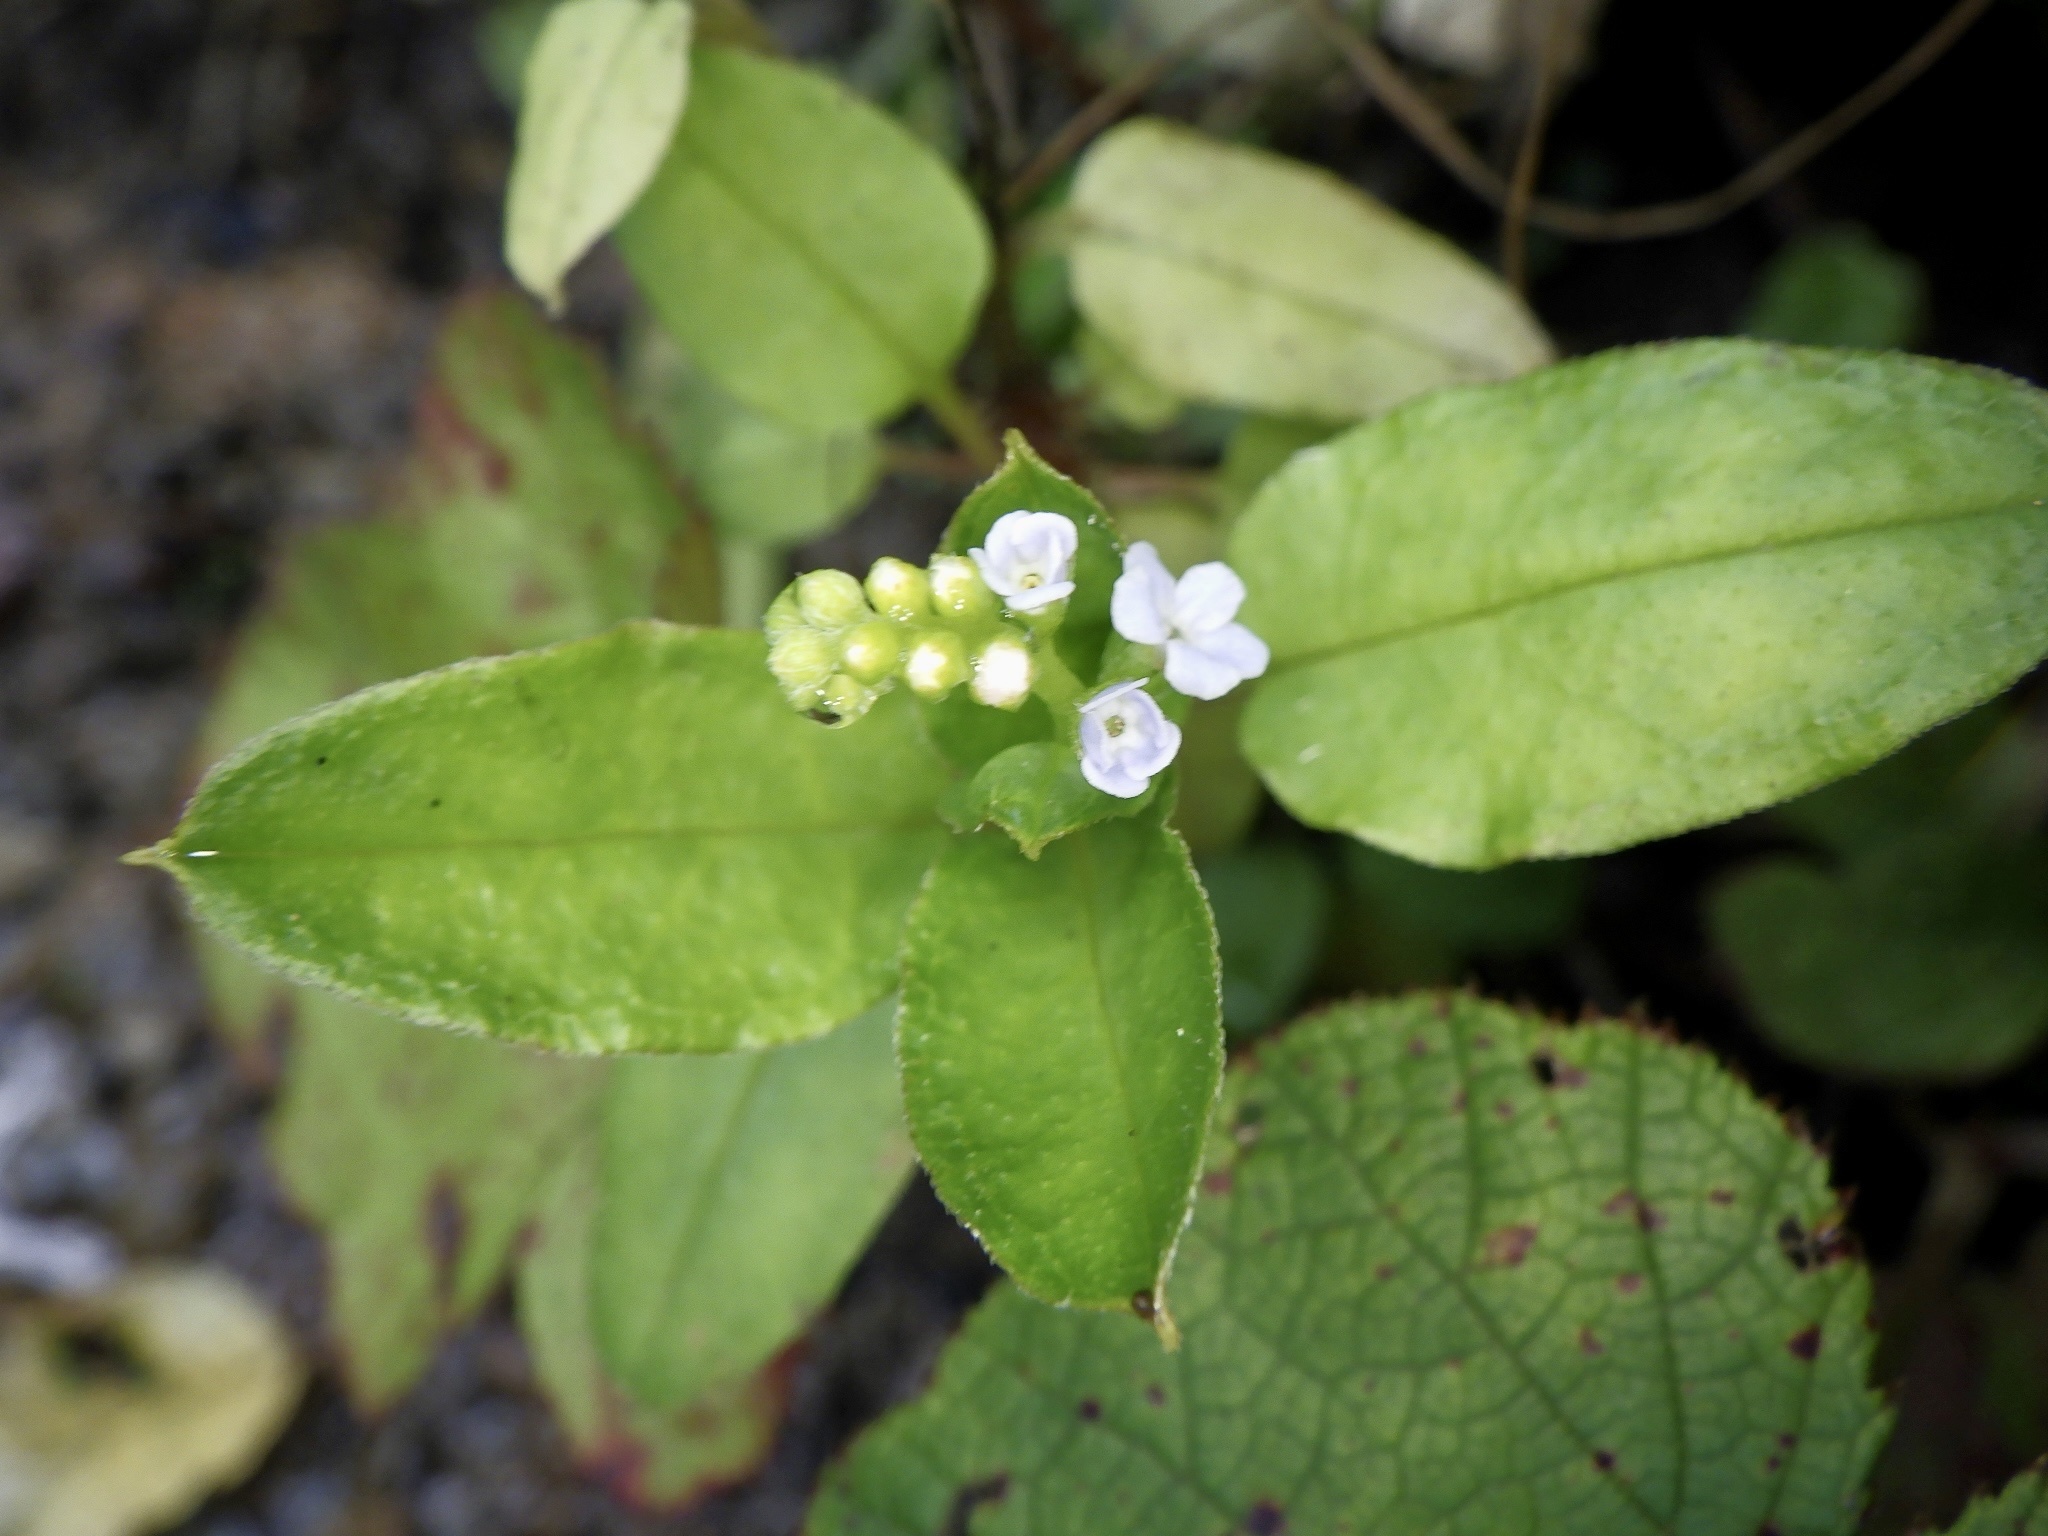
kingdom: Plantae
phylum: Tracheophyta
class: Magnoliopsida
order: Boraginales
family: Boraginaceae
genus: Trigonotis
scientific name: Trigonotis brevipes
